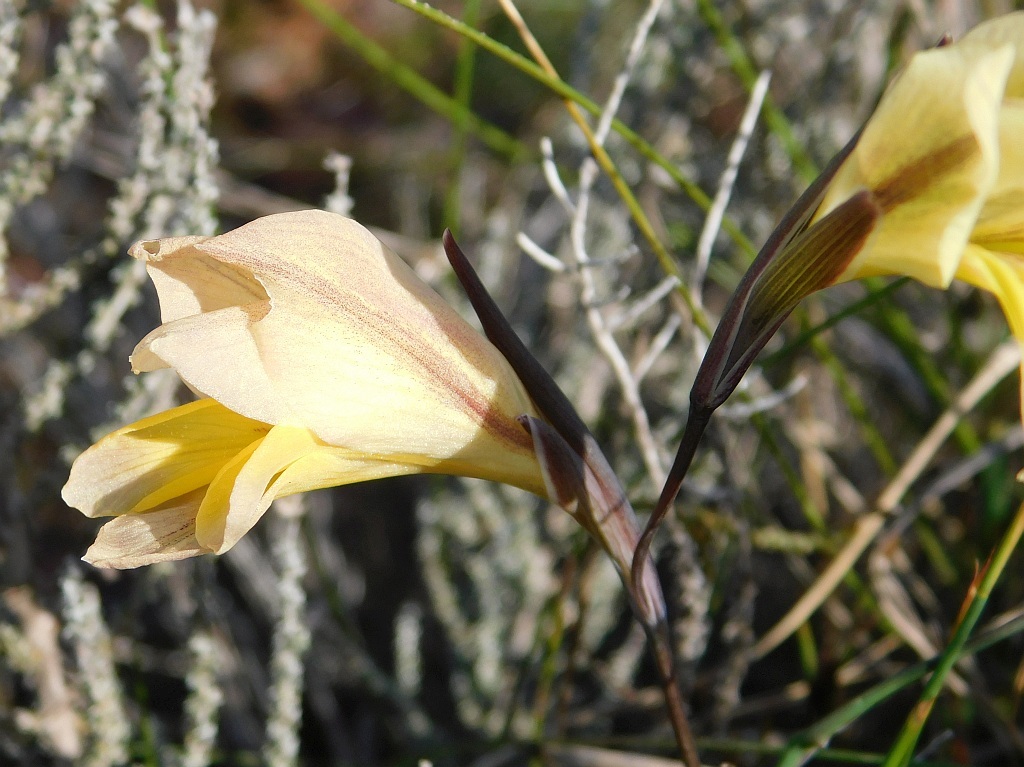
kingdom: Plantae
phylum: Tracheophyta
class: Liliopsida
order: Asparagales
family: Iridaceae
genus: Gladiolus
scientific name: Gladiolus carinatus
